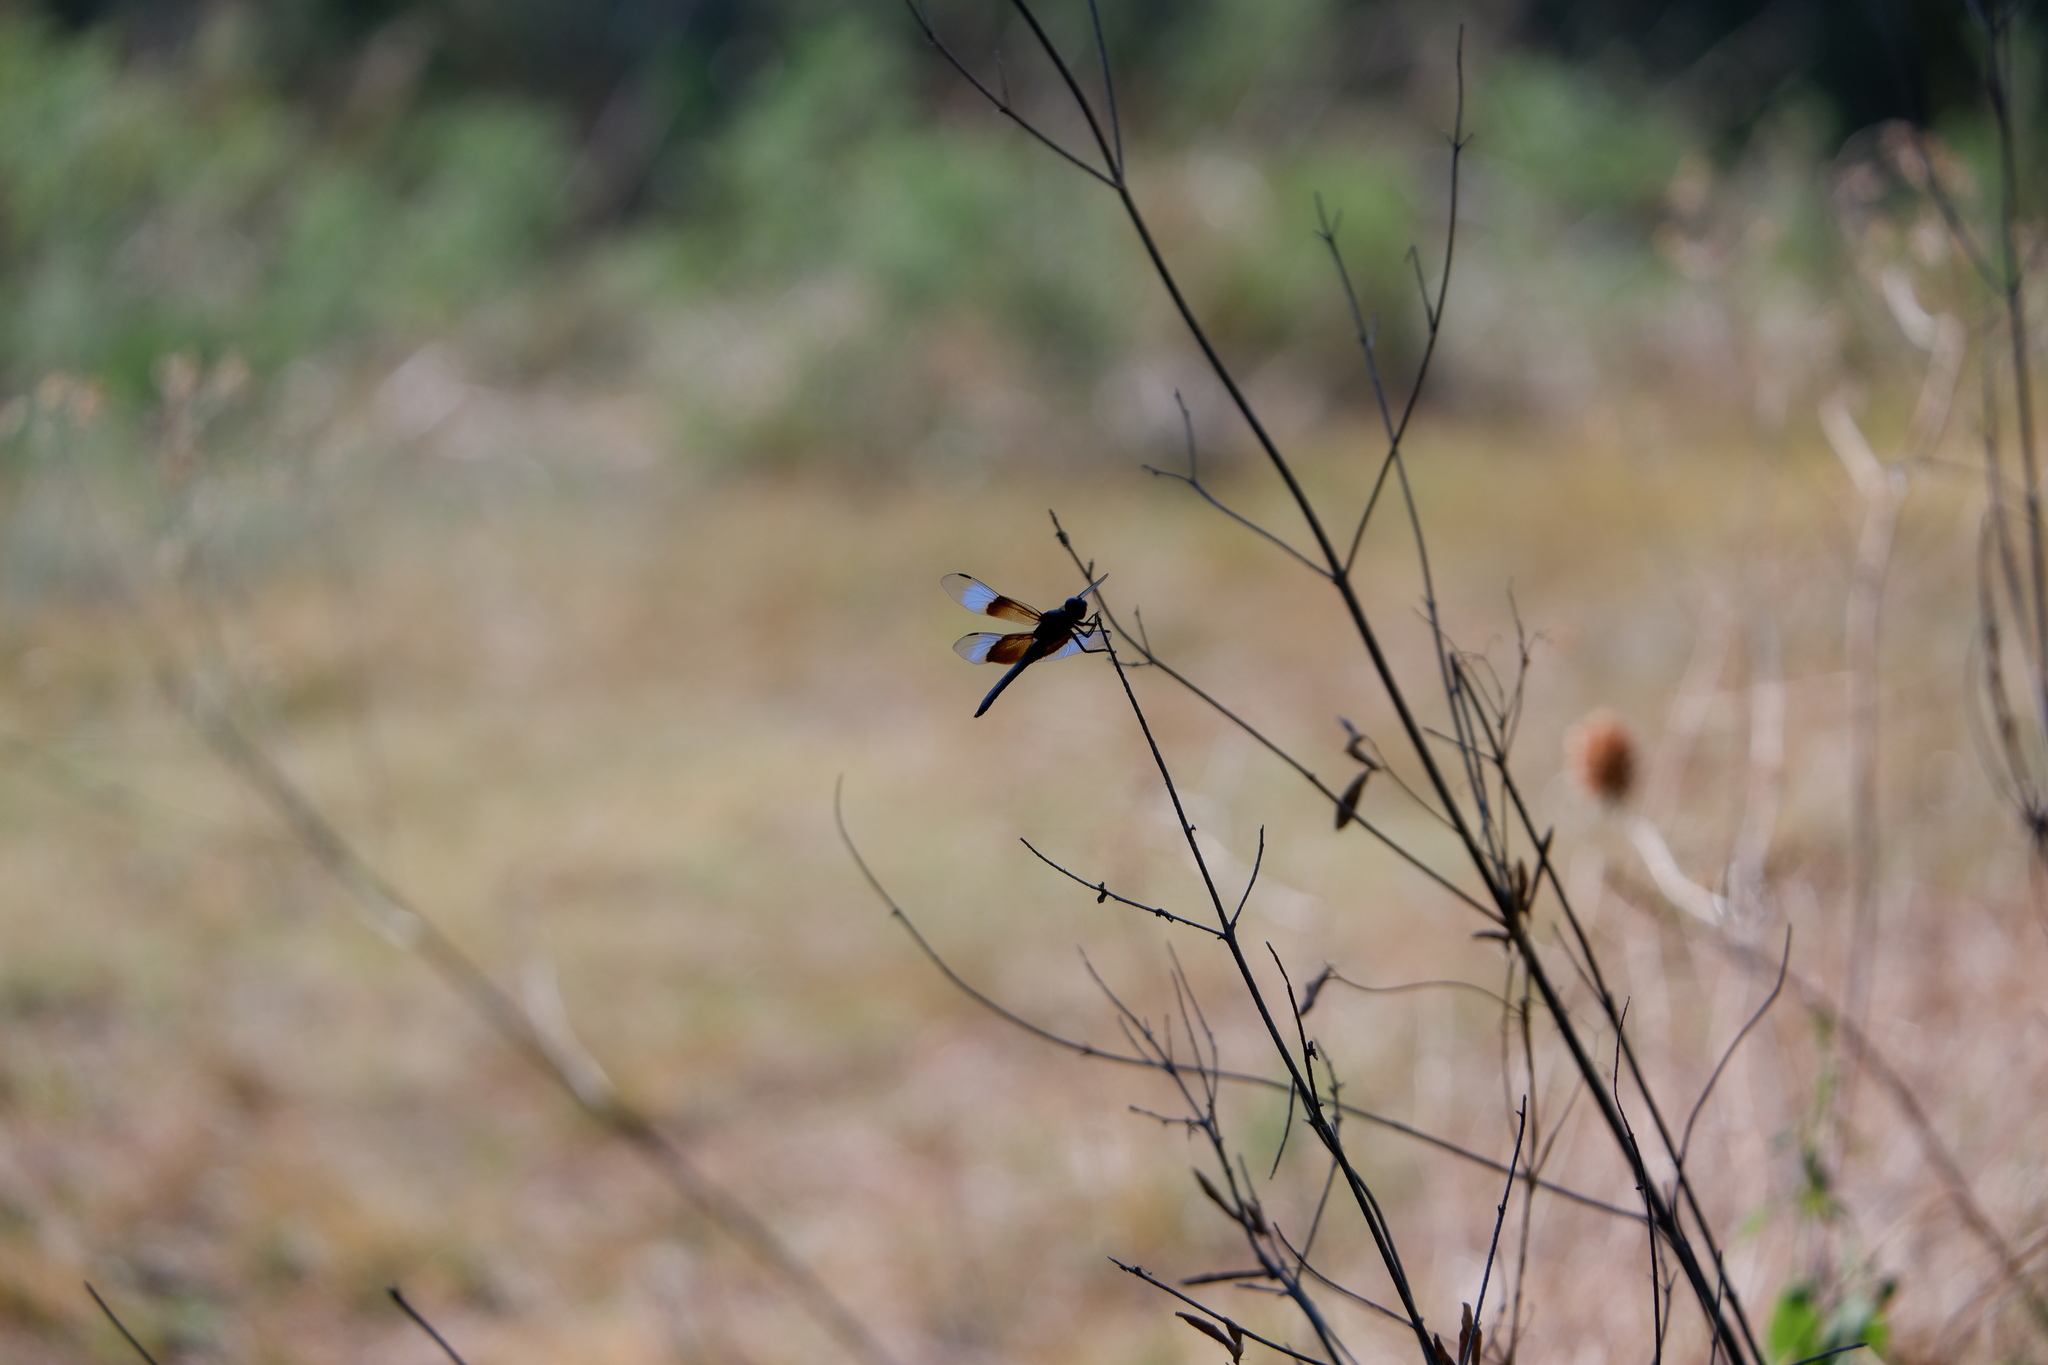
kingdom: Animalia
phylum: Arthropoda
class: Insecta
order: Odonata
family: Libellulidae
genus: Libellula
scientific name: Libellula luctuosa
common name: Widow skimmer
